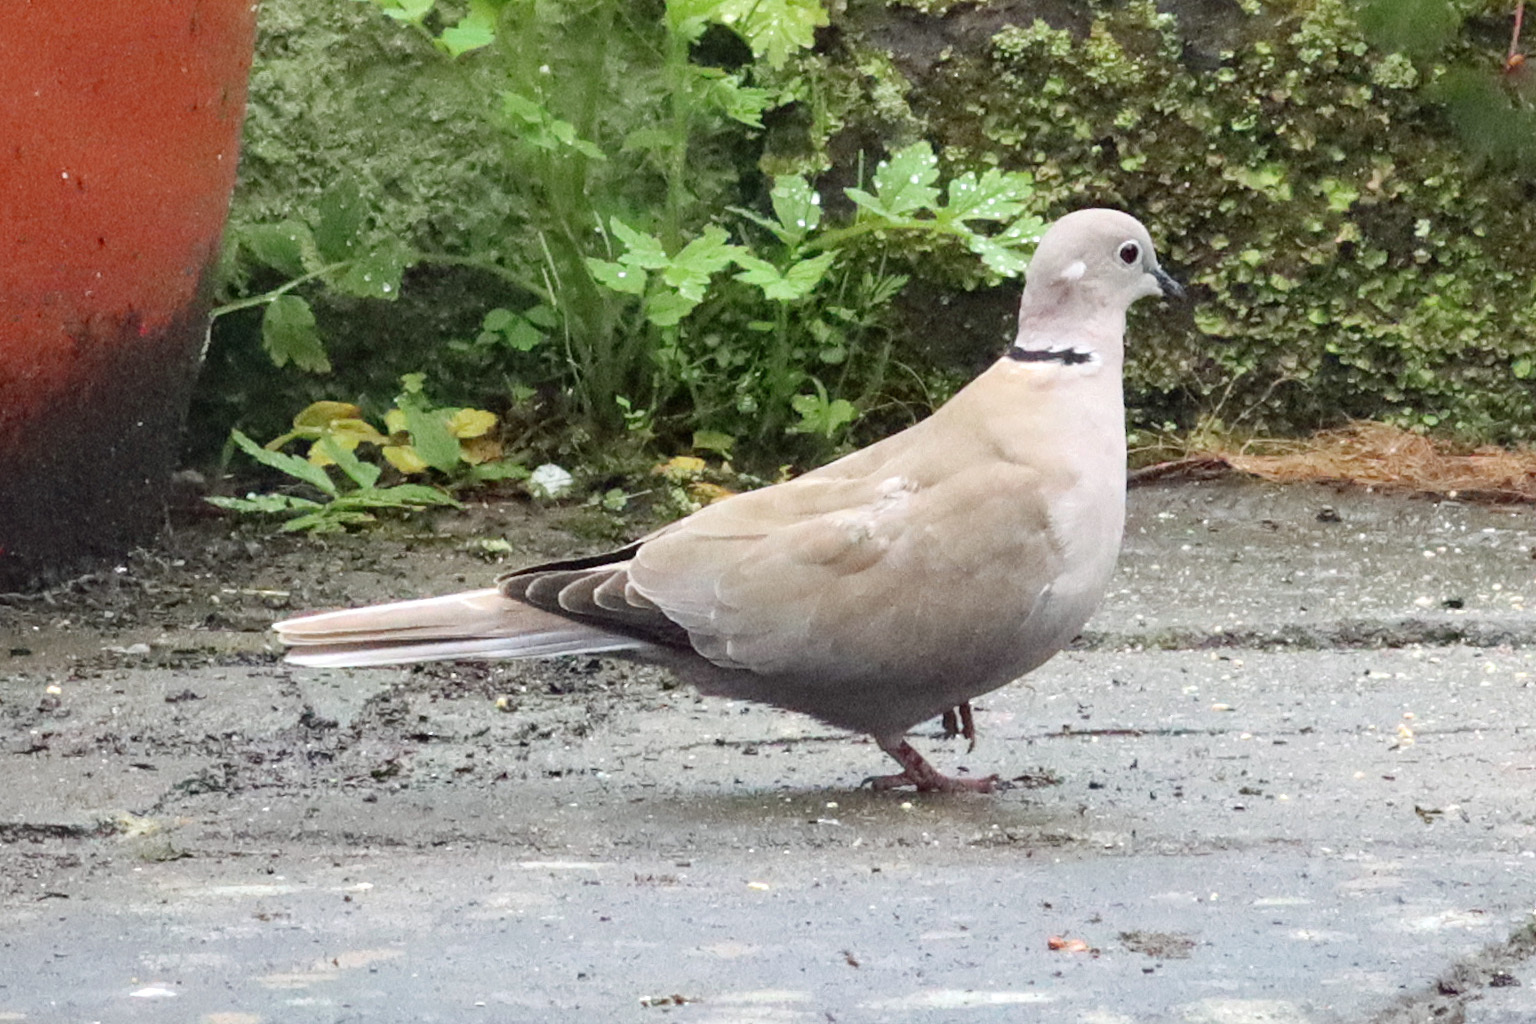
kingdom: Animalia
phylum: Chordata
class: Aves
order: Columbiformes
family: Columbidae
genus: Streptopelia
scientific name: Streptopelia decaocto
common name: Eurasian collared dove
